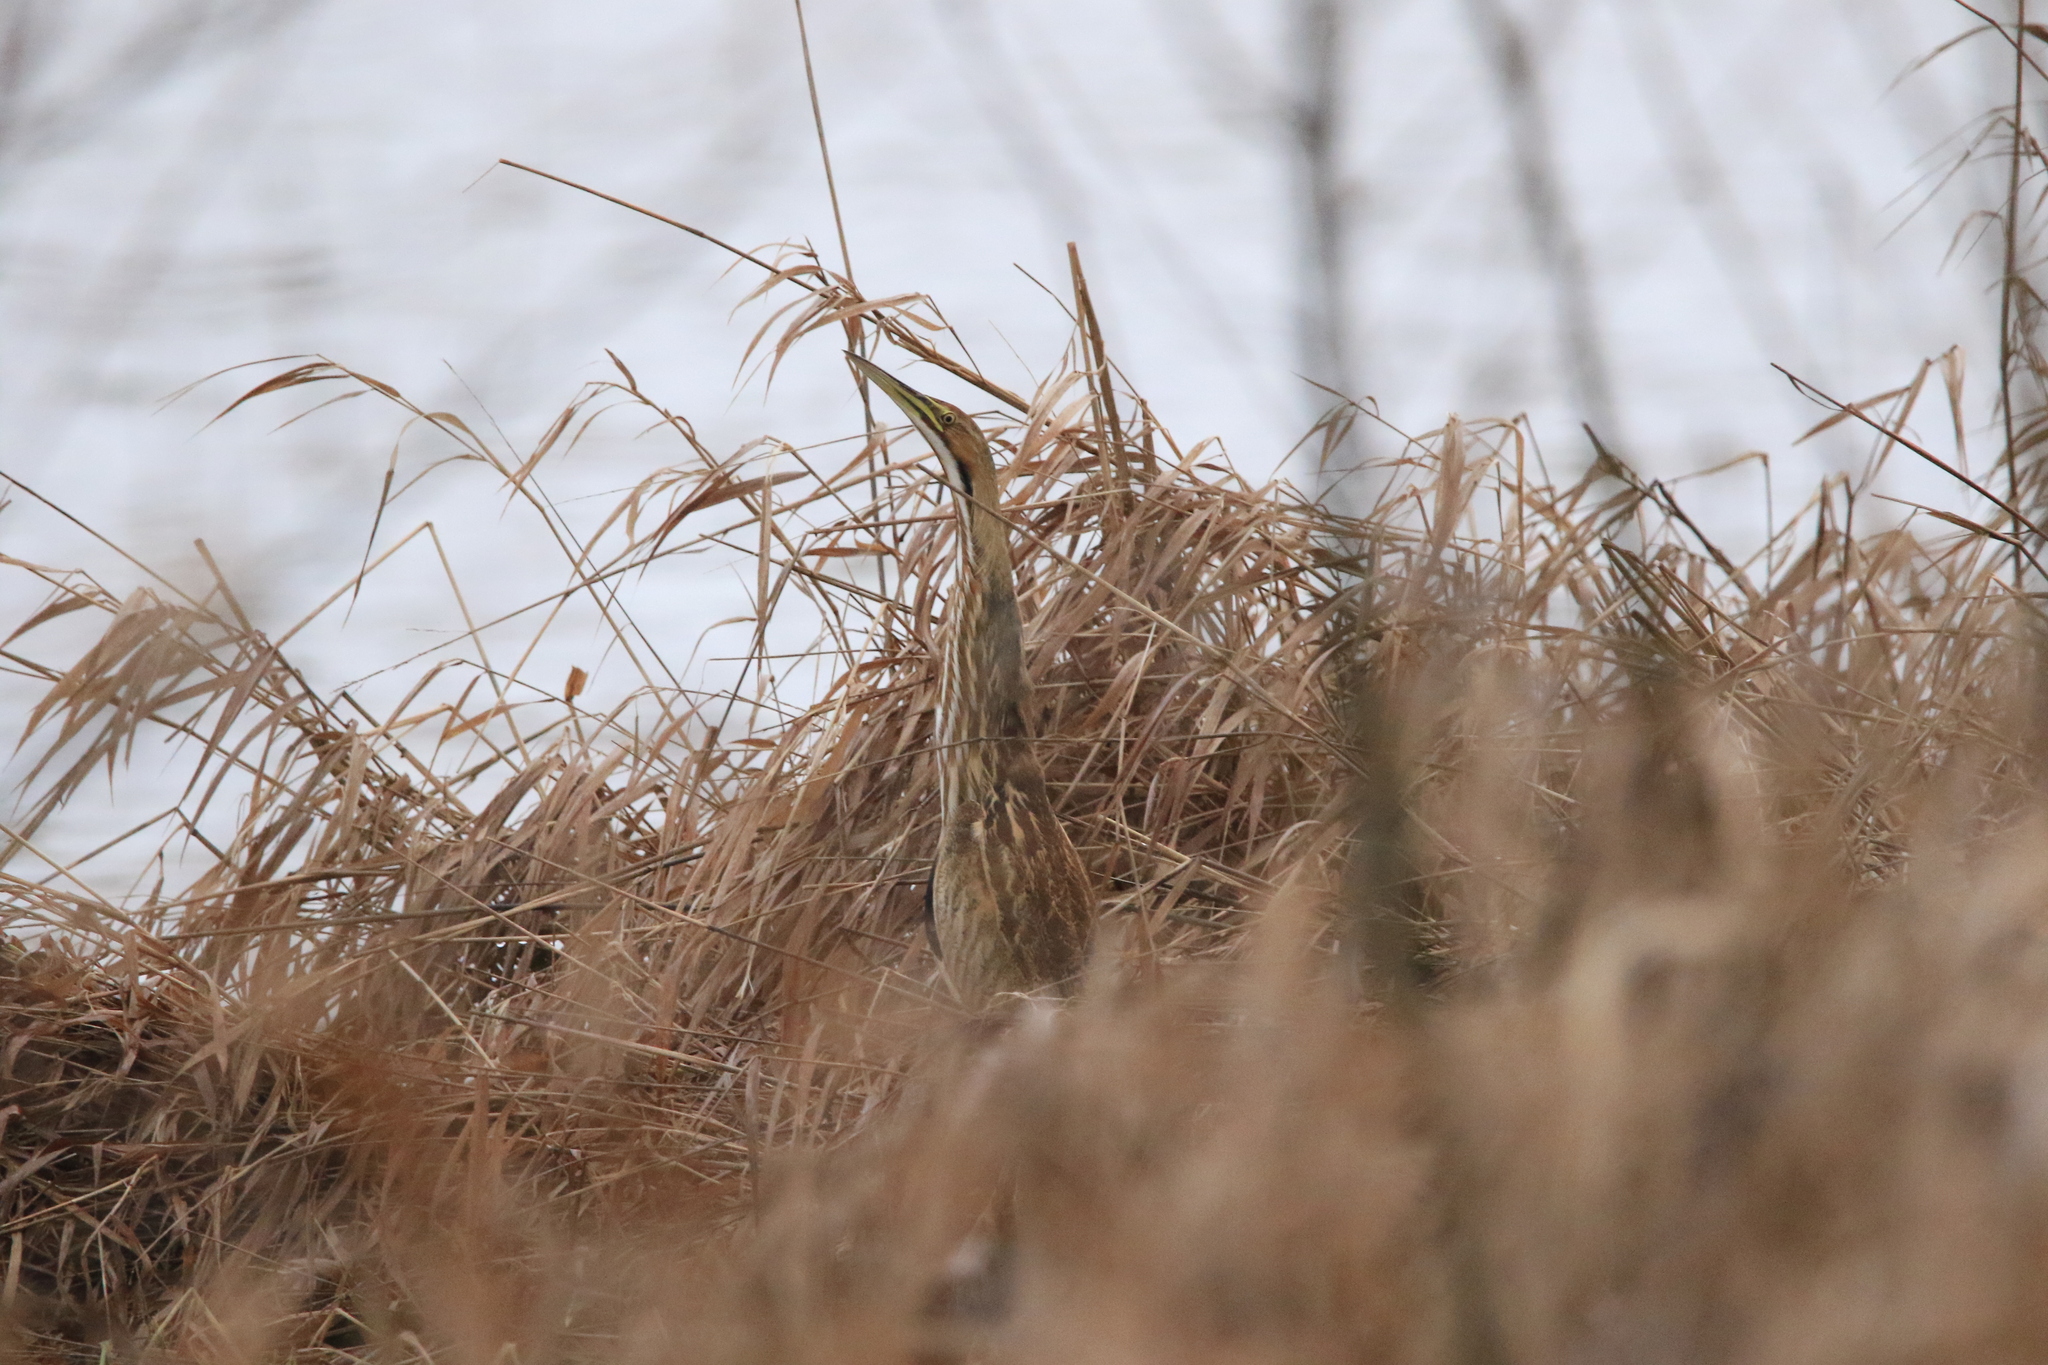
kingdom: Animalia
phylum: Chordata
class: Aves
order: Pelecaniformes
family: Ardeidae
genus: Botaurus
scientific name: Botaurus lentiginosus
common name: American bittern
